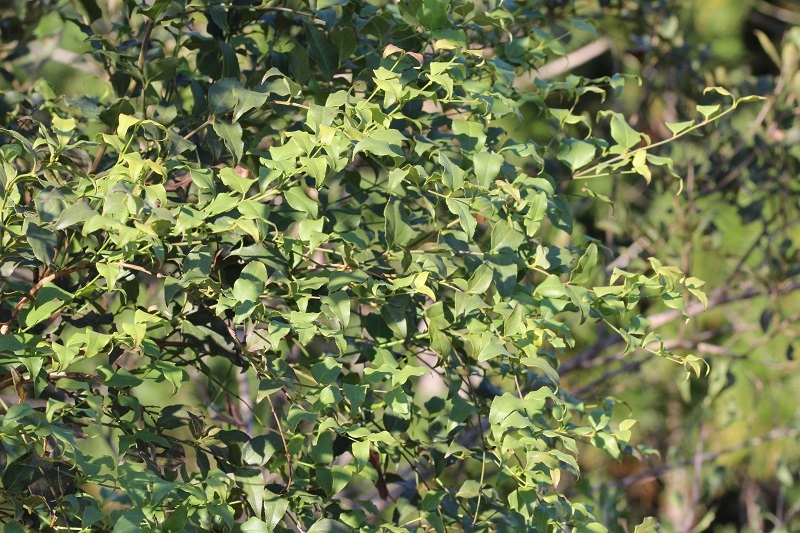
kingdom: Plantae
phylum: Tracheophyta
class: Magnoliopsida
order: Lamiales
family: Stilbaceae
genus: Halleria
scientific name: Halleria lucida
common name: Tree fuschia
